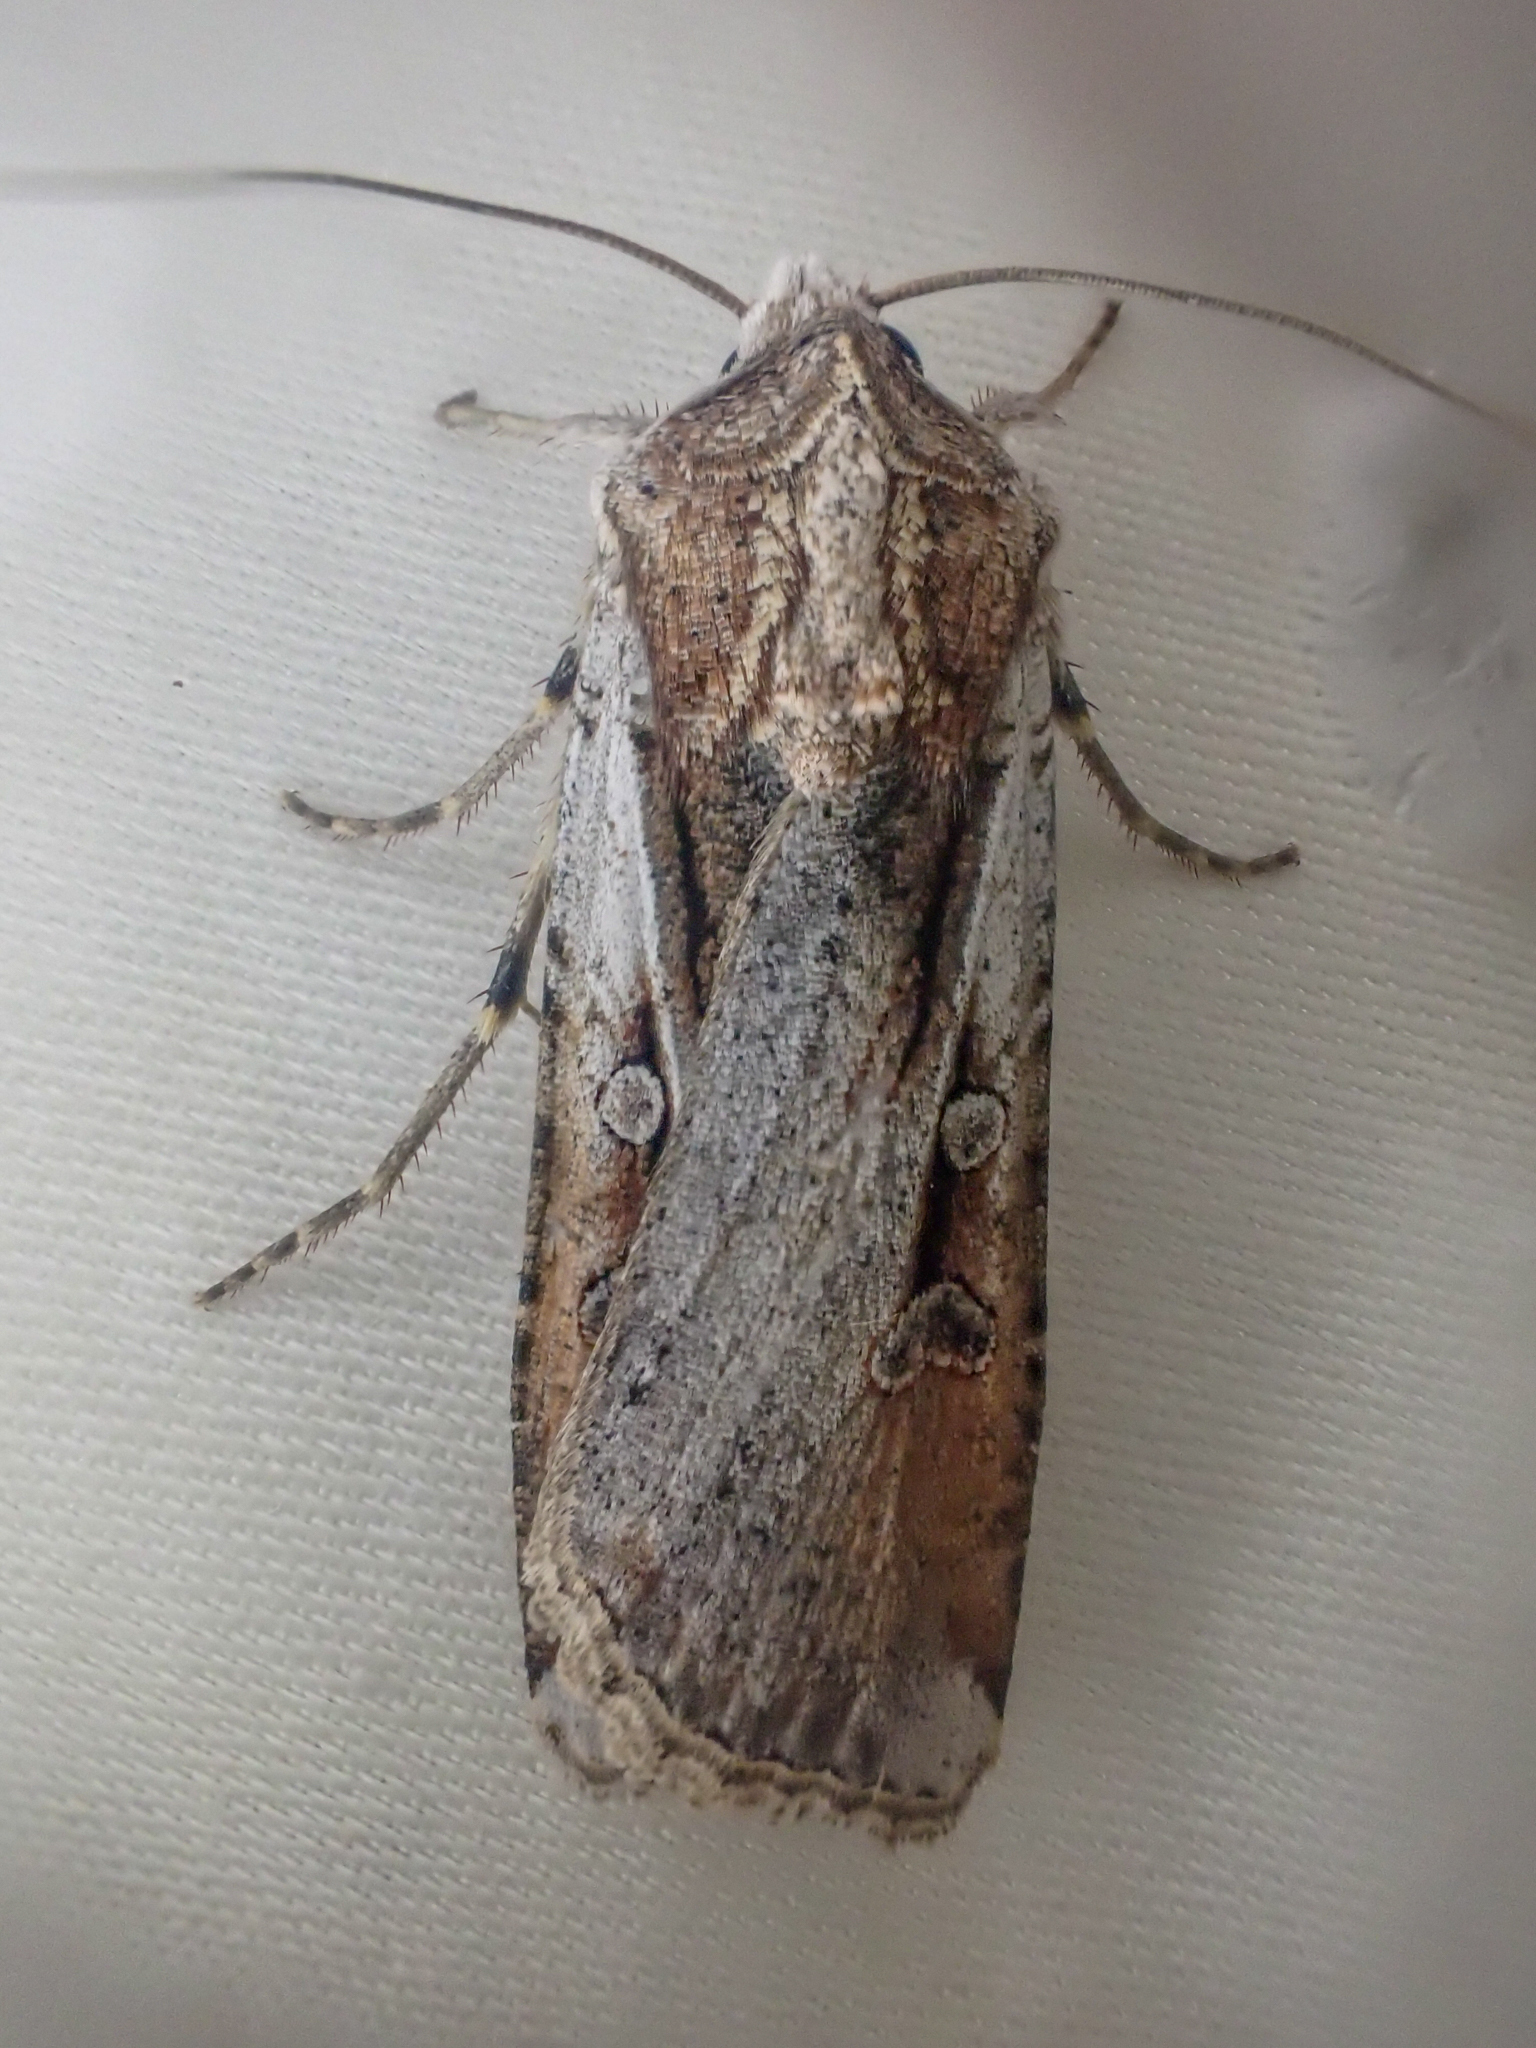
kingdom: Animalia
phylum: Arthropoda
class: Insecta
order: Lepidoptera
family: Noctuidae
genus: Hemieuxoa
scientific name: Hemieuxoa rudens
